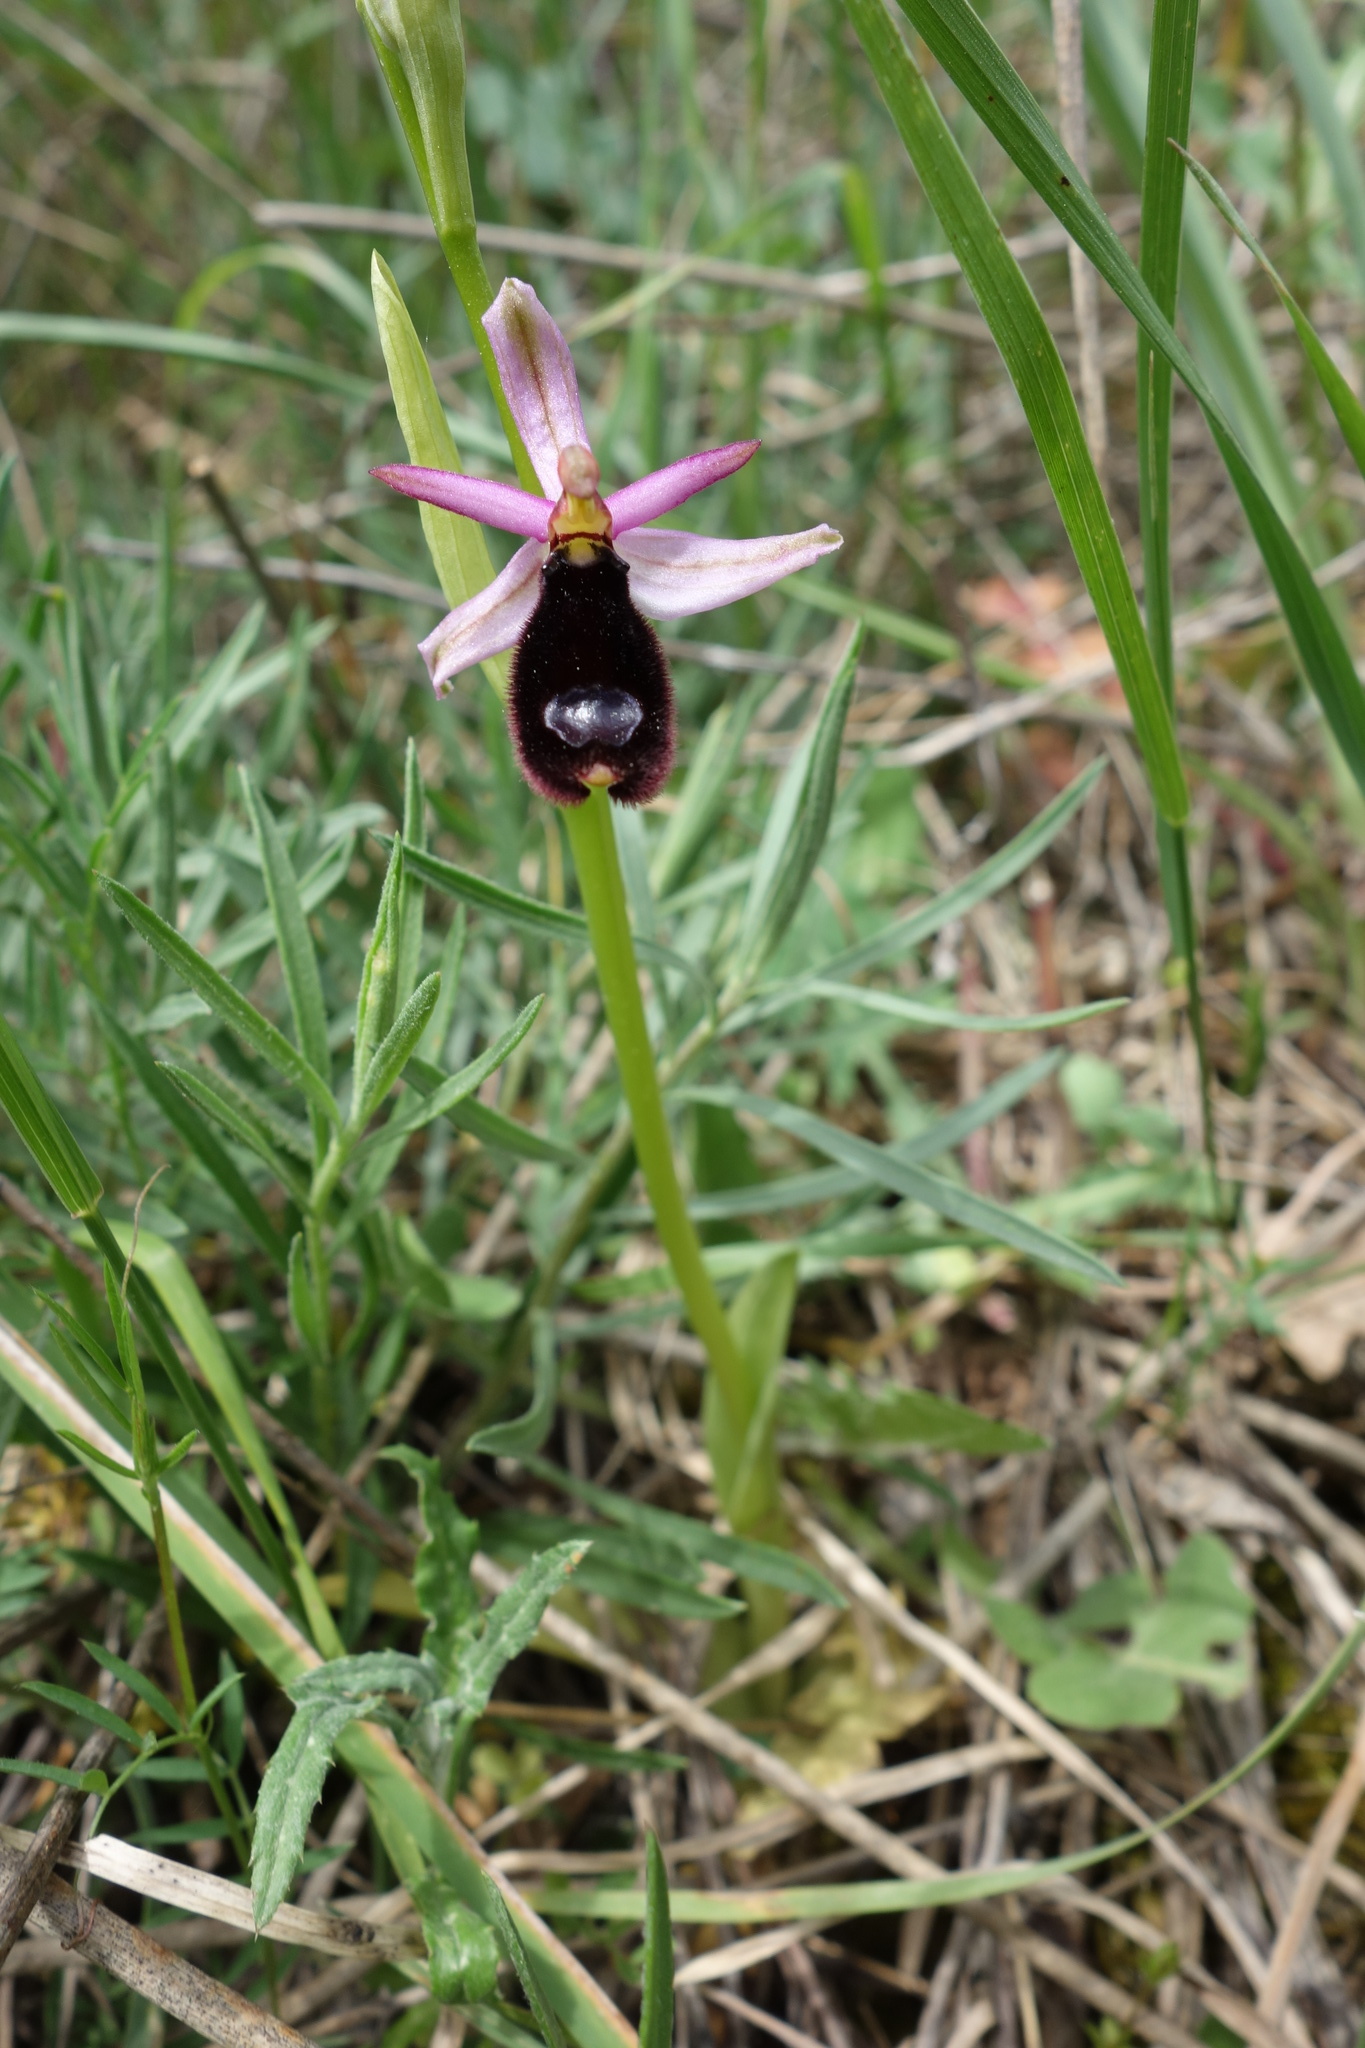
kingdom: Plantae
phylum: Tracheophyta
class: Liliopsida
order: Asparagales
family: Orchidaceae
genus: Ophrys
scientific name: Ophrys bertolonii
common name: Bertoloni's bee orchid
